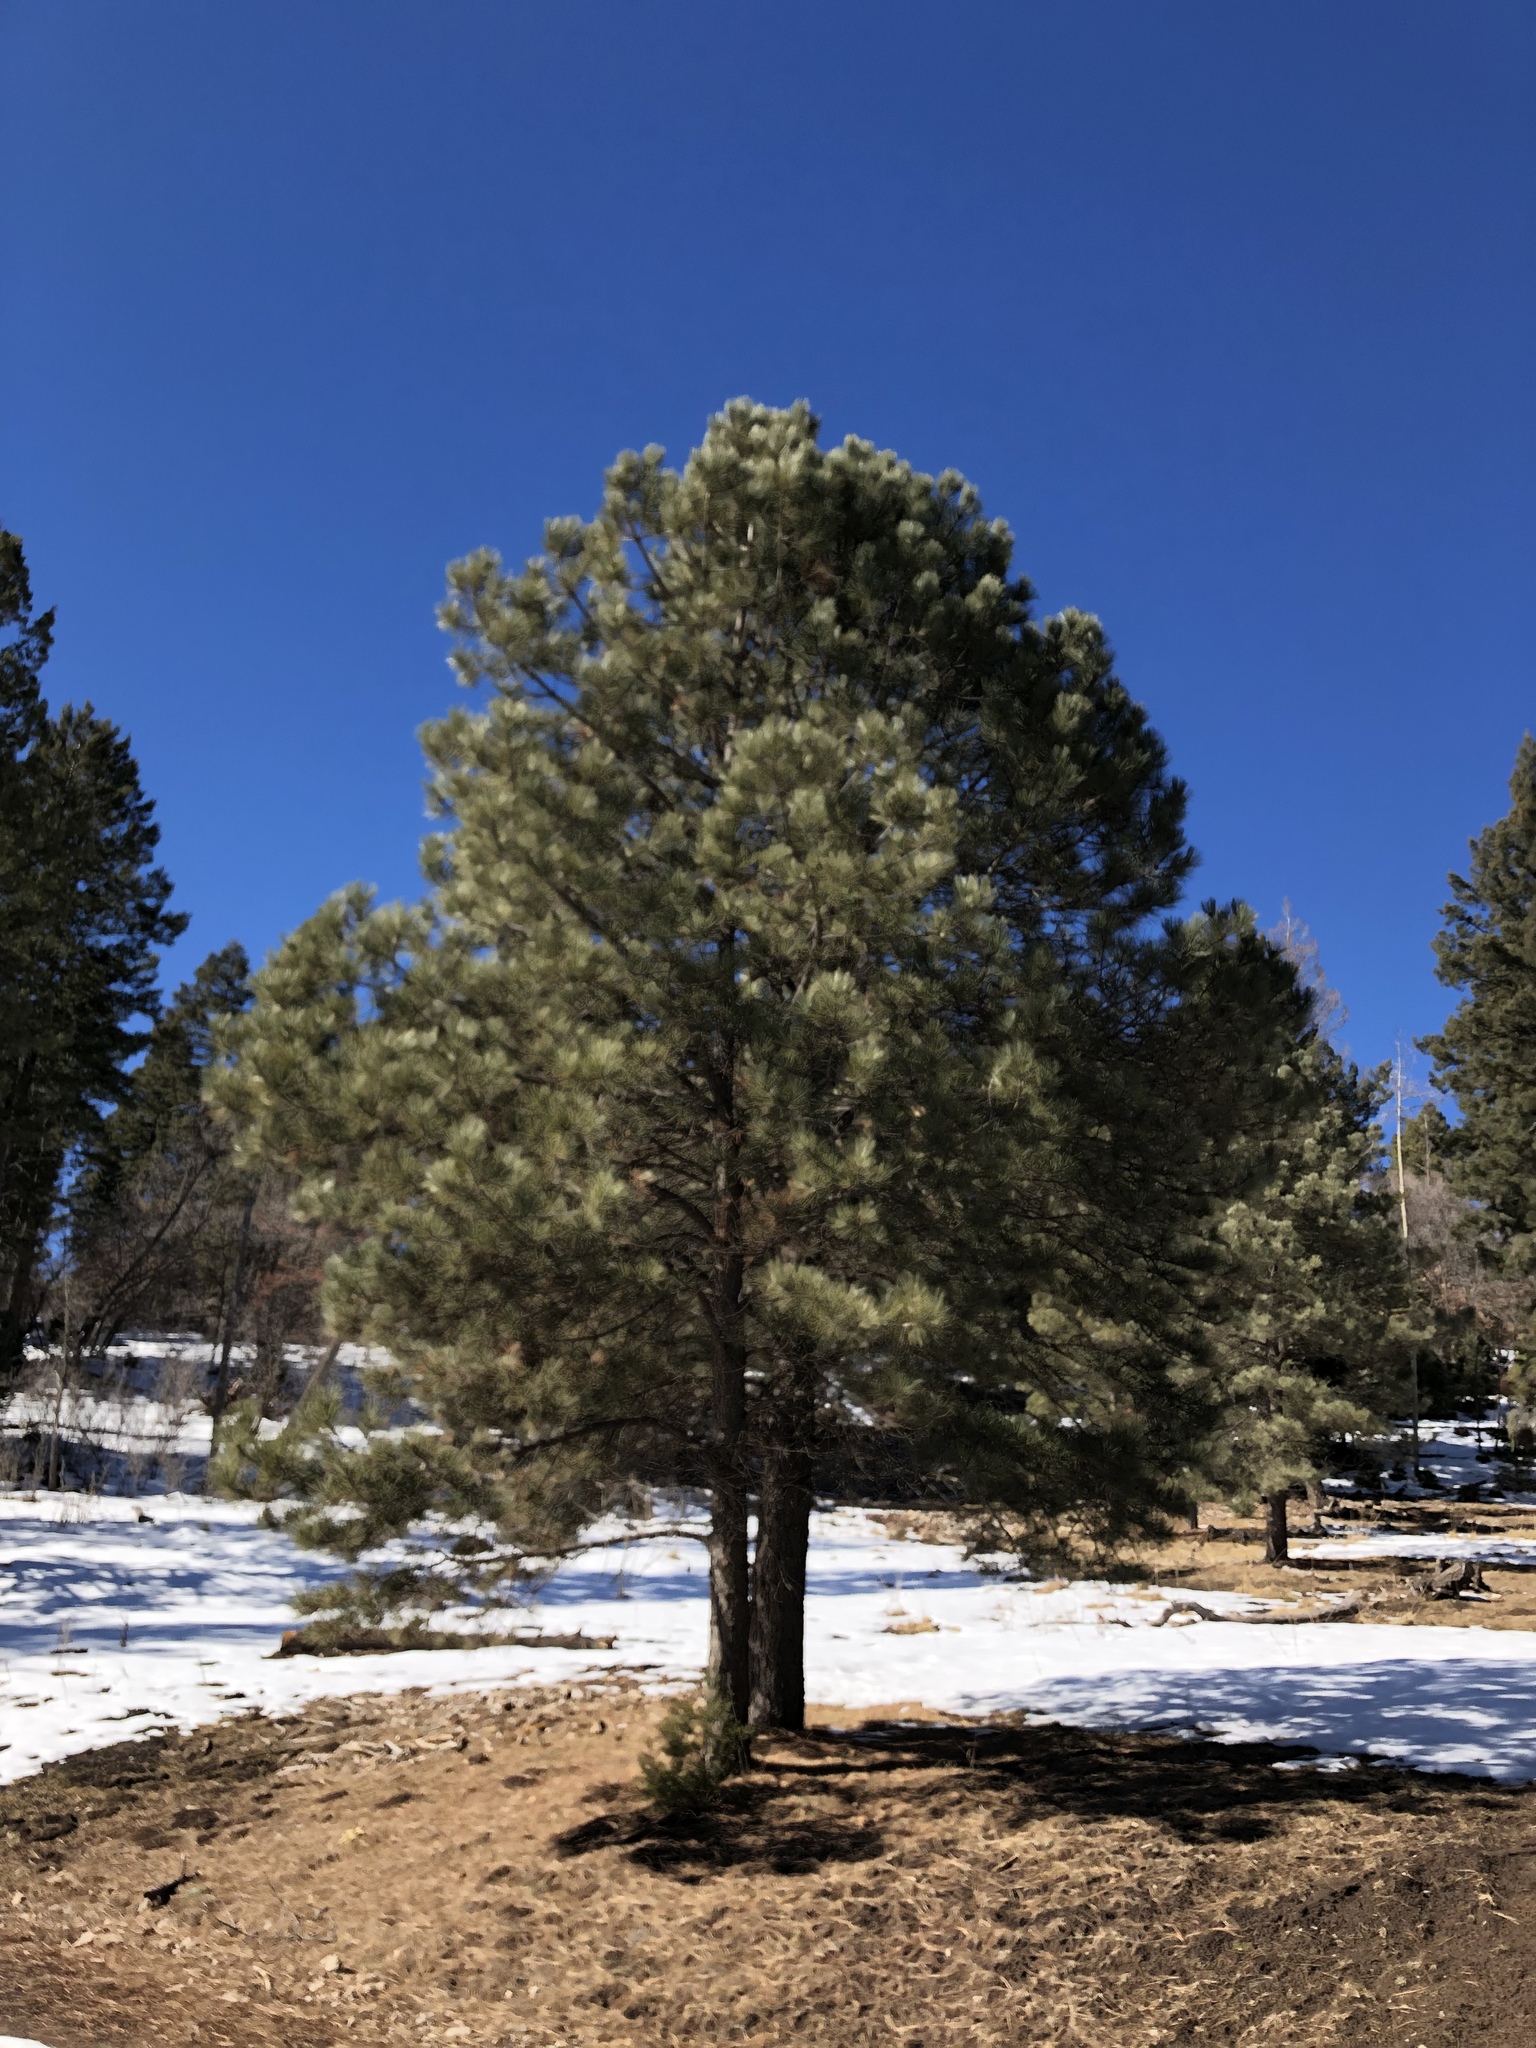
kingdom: Plantae
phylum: Tracheophyta
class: Pinopsida
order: Pinales
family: Pinaceae
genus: Pinus
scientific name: Pinus ponderosa
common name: Western yellow-pine
